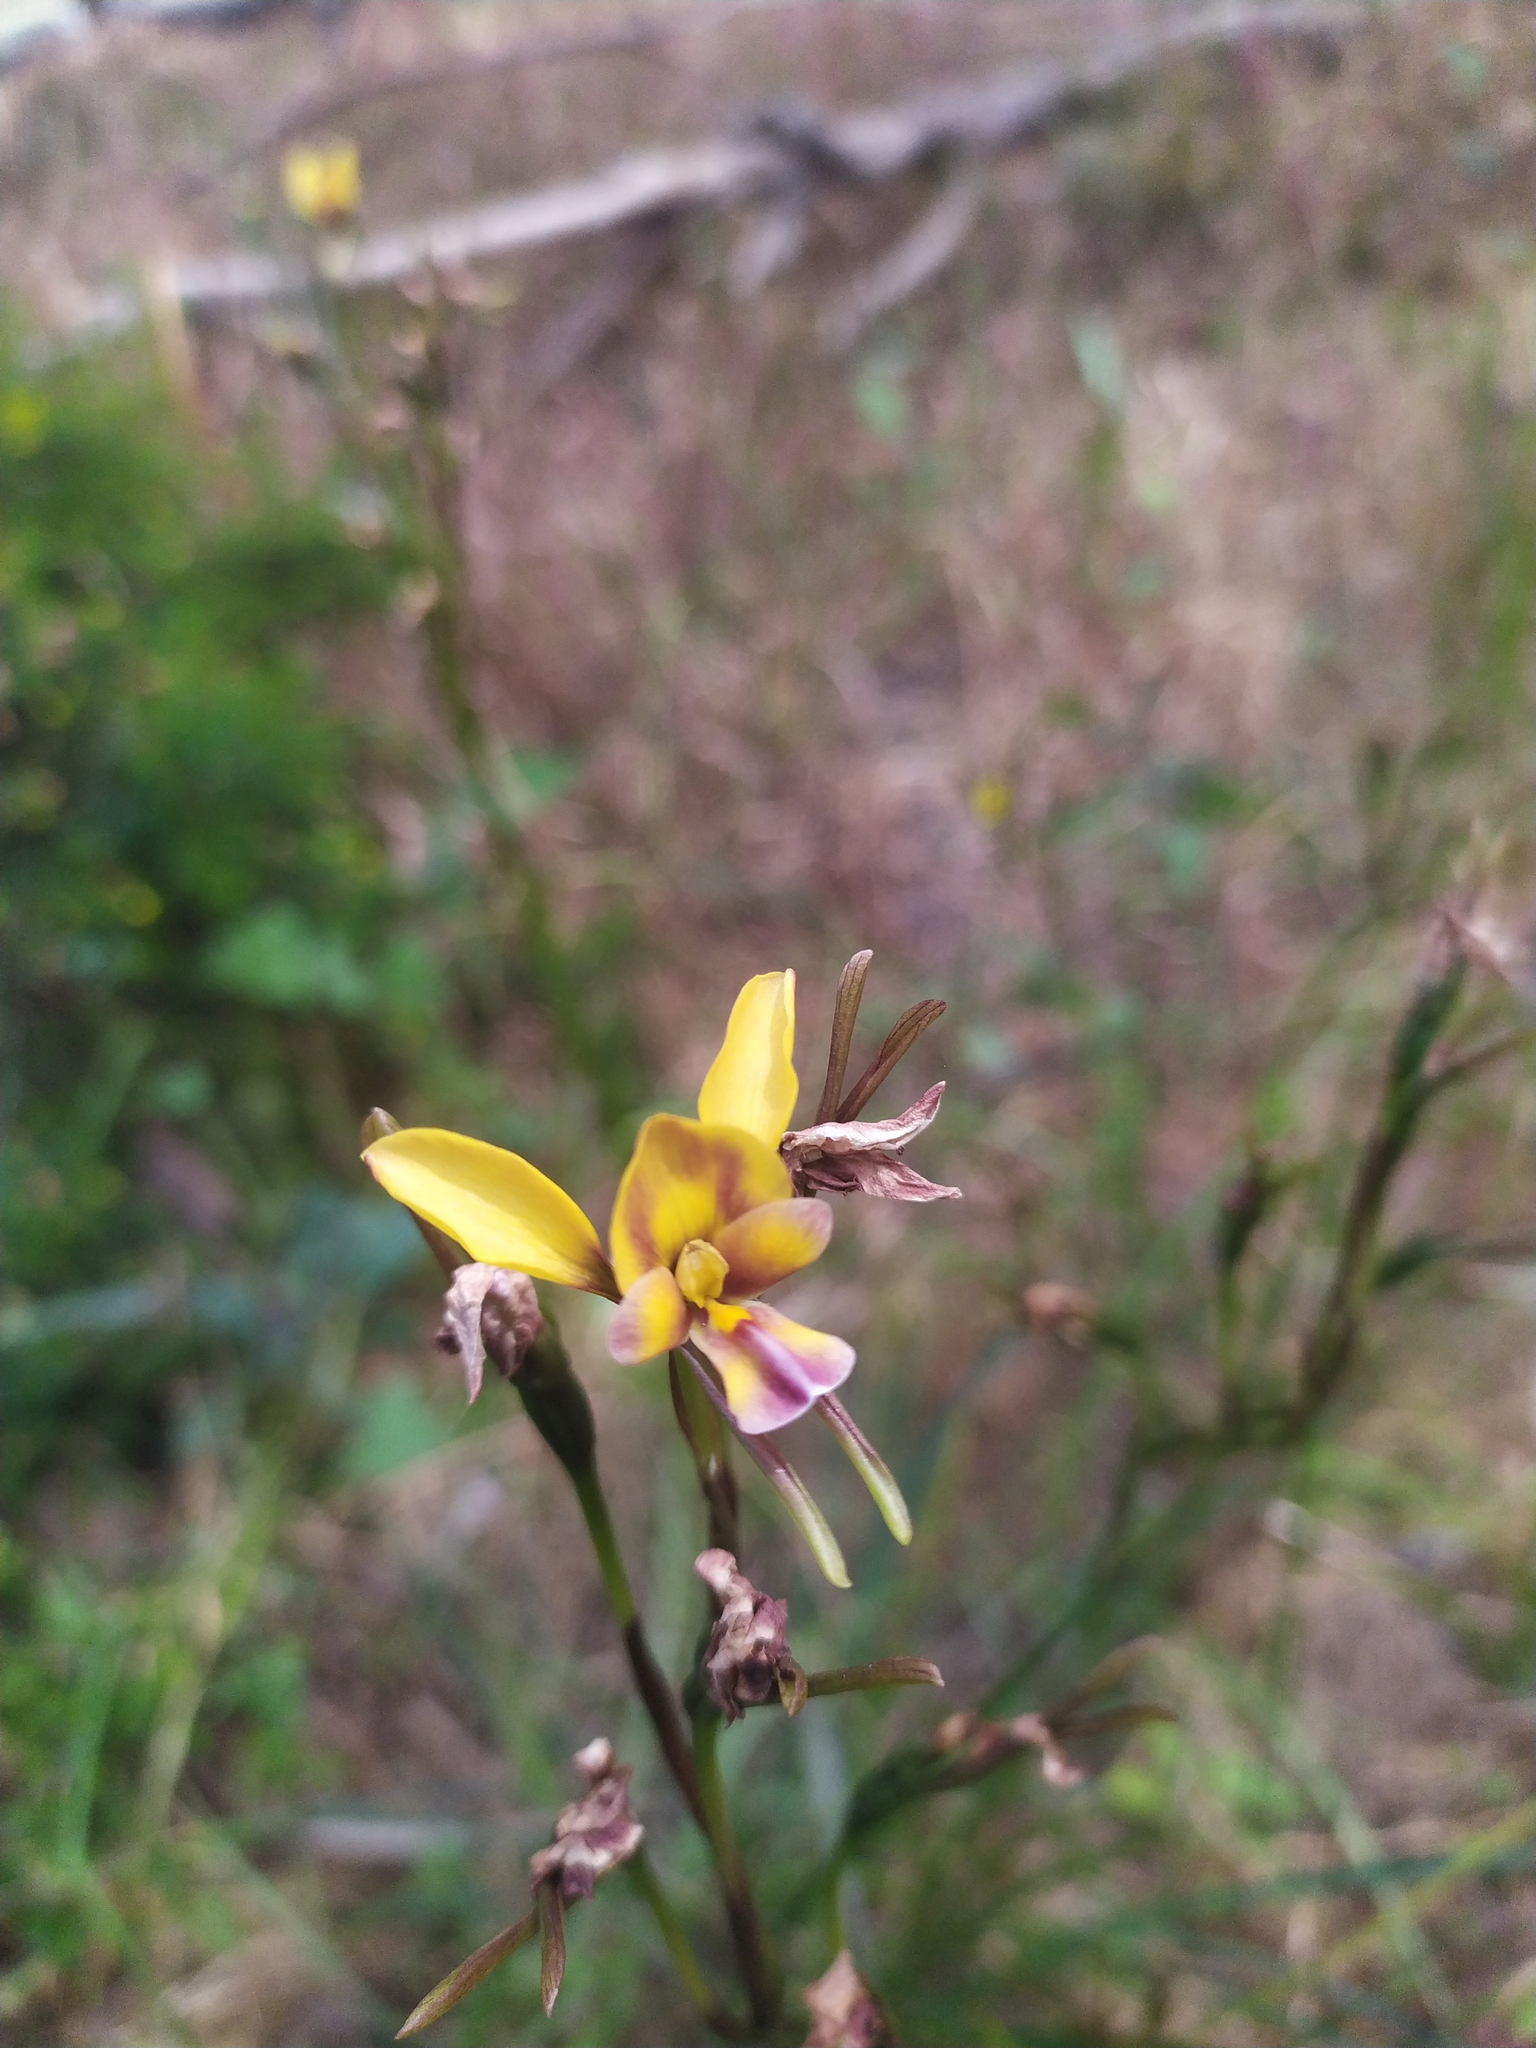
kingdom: Plantae
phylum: Tracheophyta
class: Liliopsida
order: Asparagales
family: Orchidaceae
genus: Diuris
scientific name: Diuris magnifica
